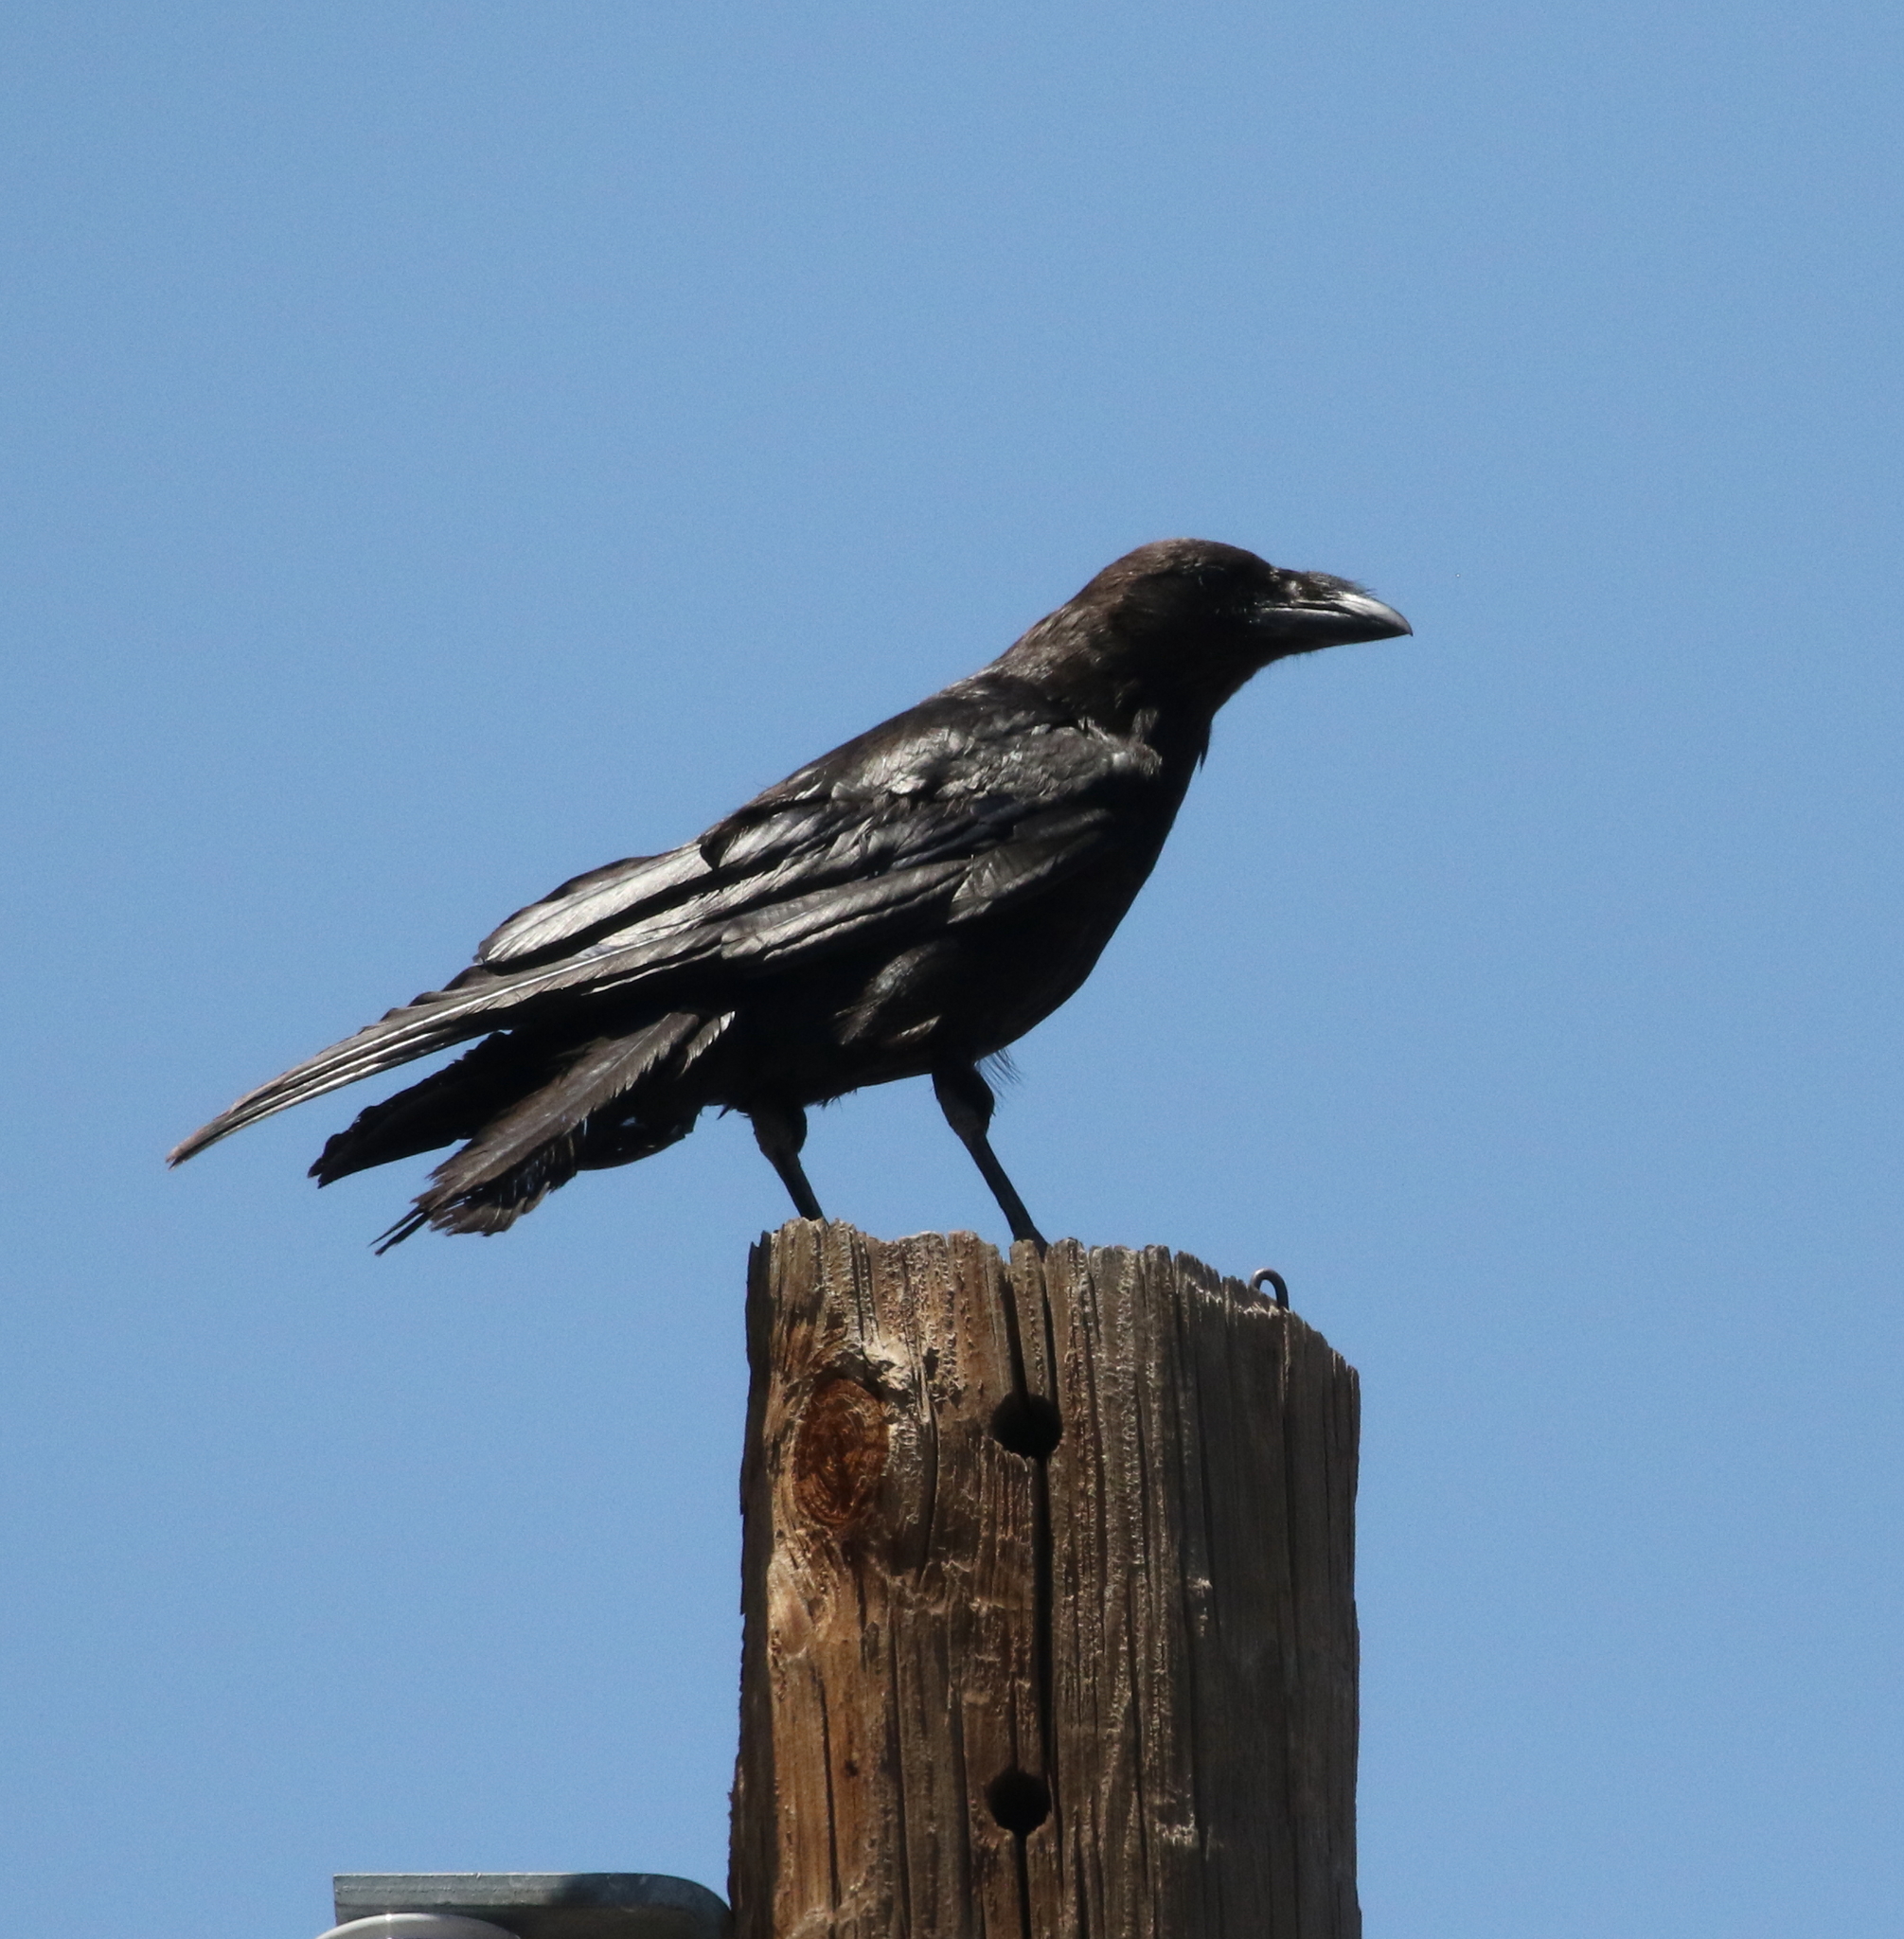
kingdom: Animalia
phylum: Chordata
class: Aves
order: Passeriformes
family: Corvidae
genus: Corvus
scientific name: Corvus cryptoleucus
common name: Chihuahuan raven
